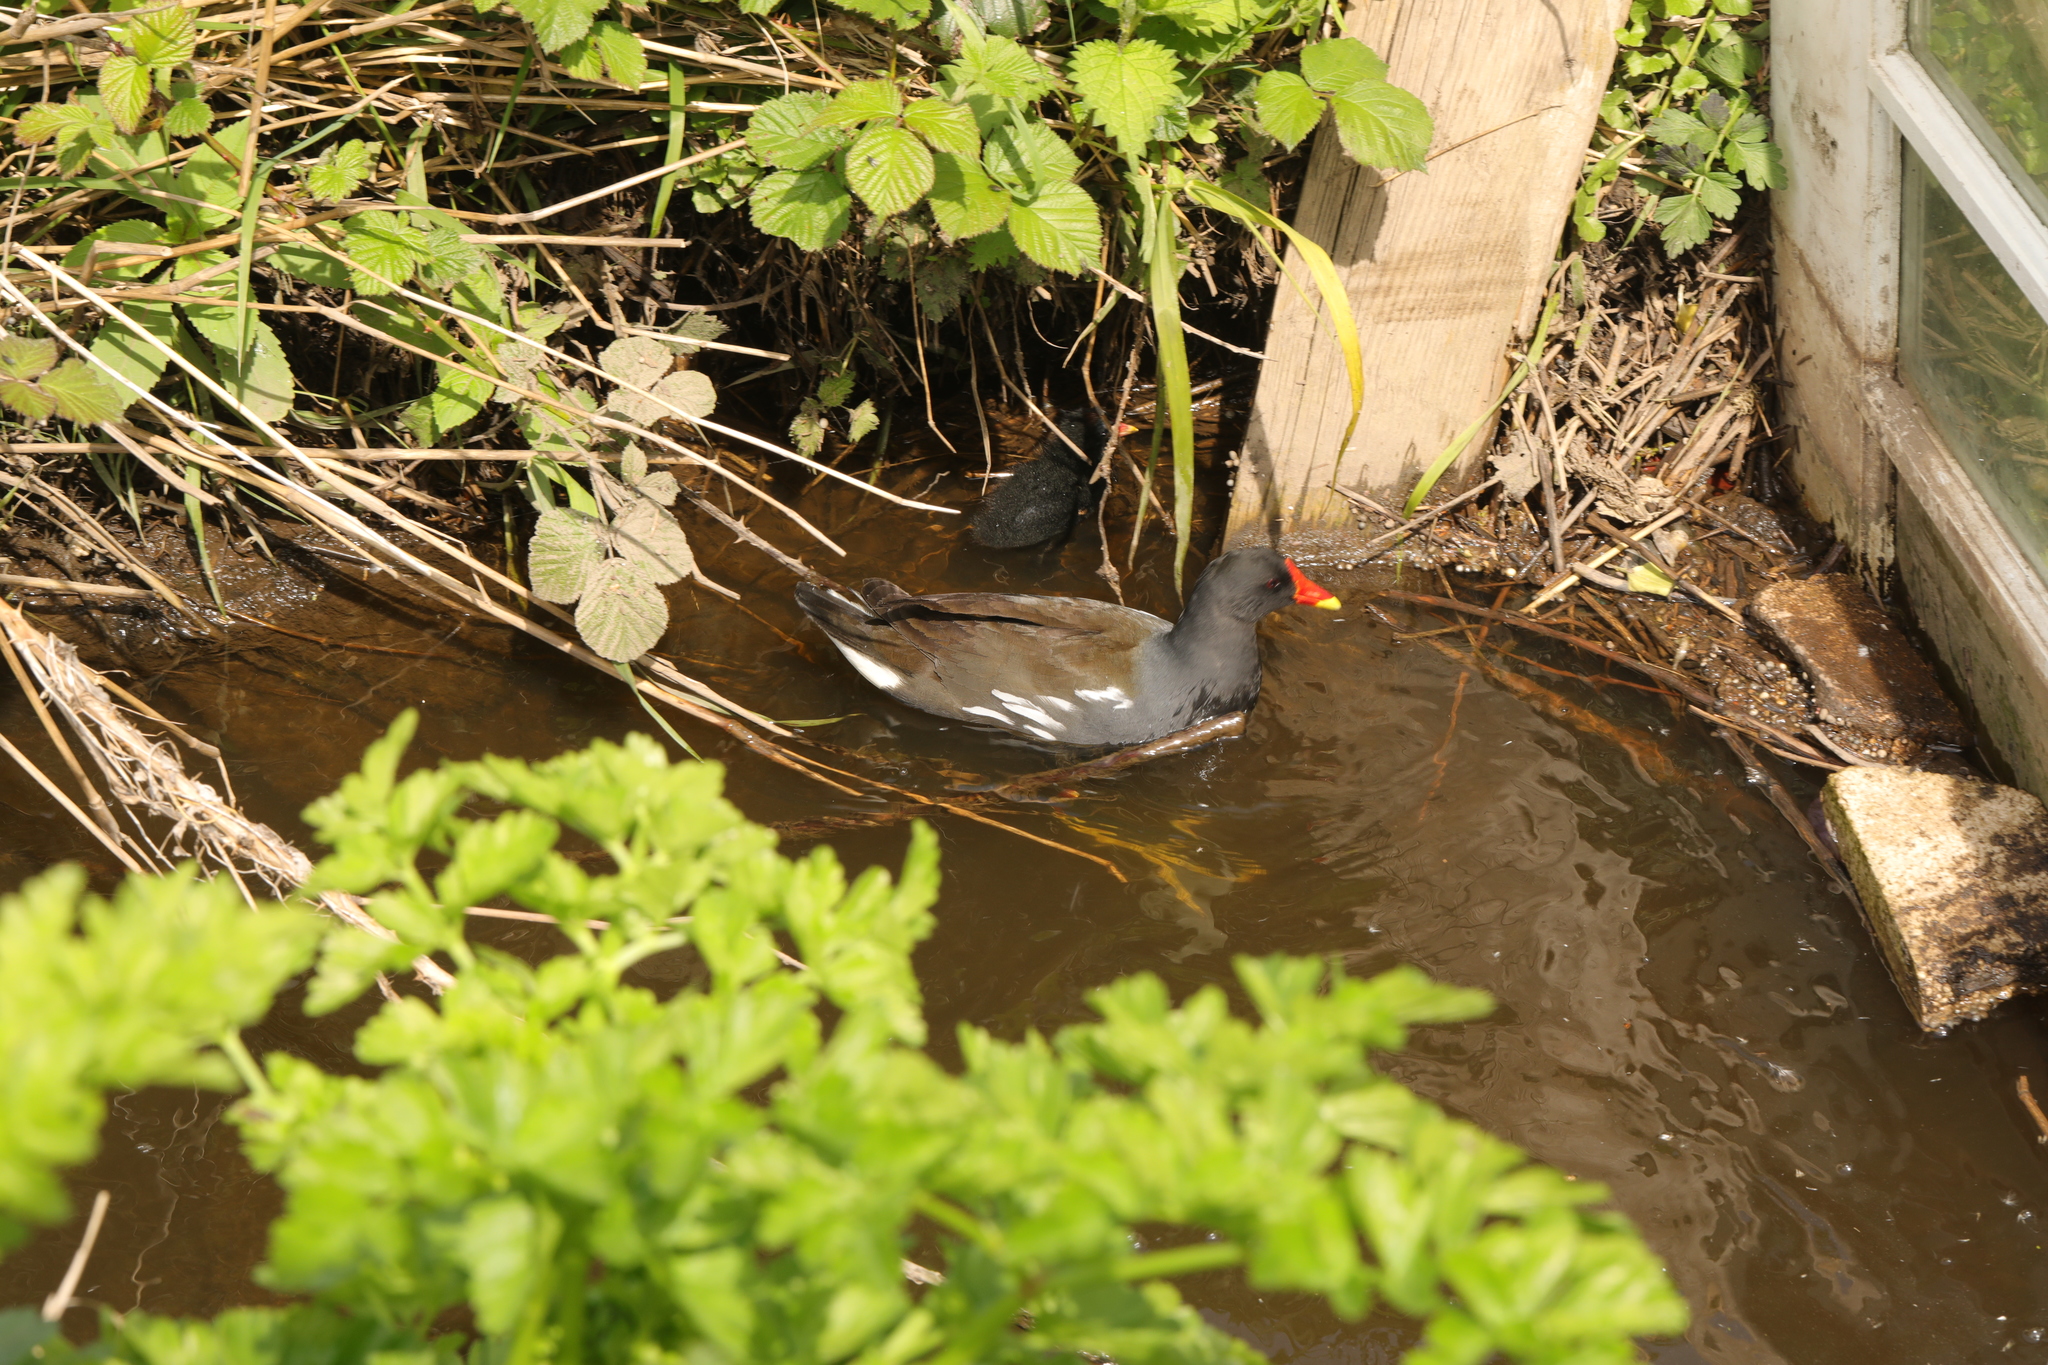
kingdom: Animalia
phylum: Chordata
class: Aves
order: Gruiformes
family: Rallidae
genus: Gallinula
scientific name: Gallinula chloropus
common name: Common moorhen
